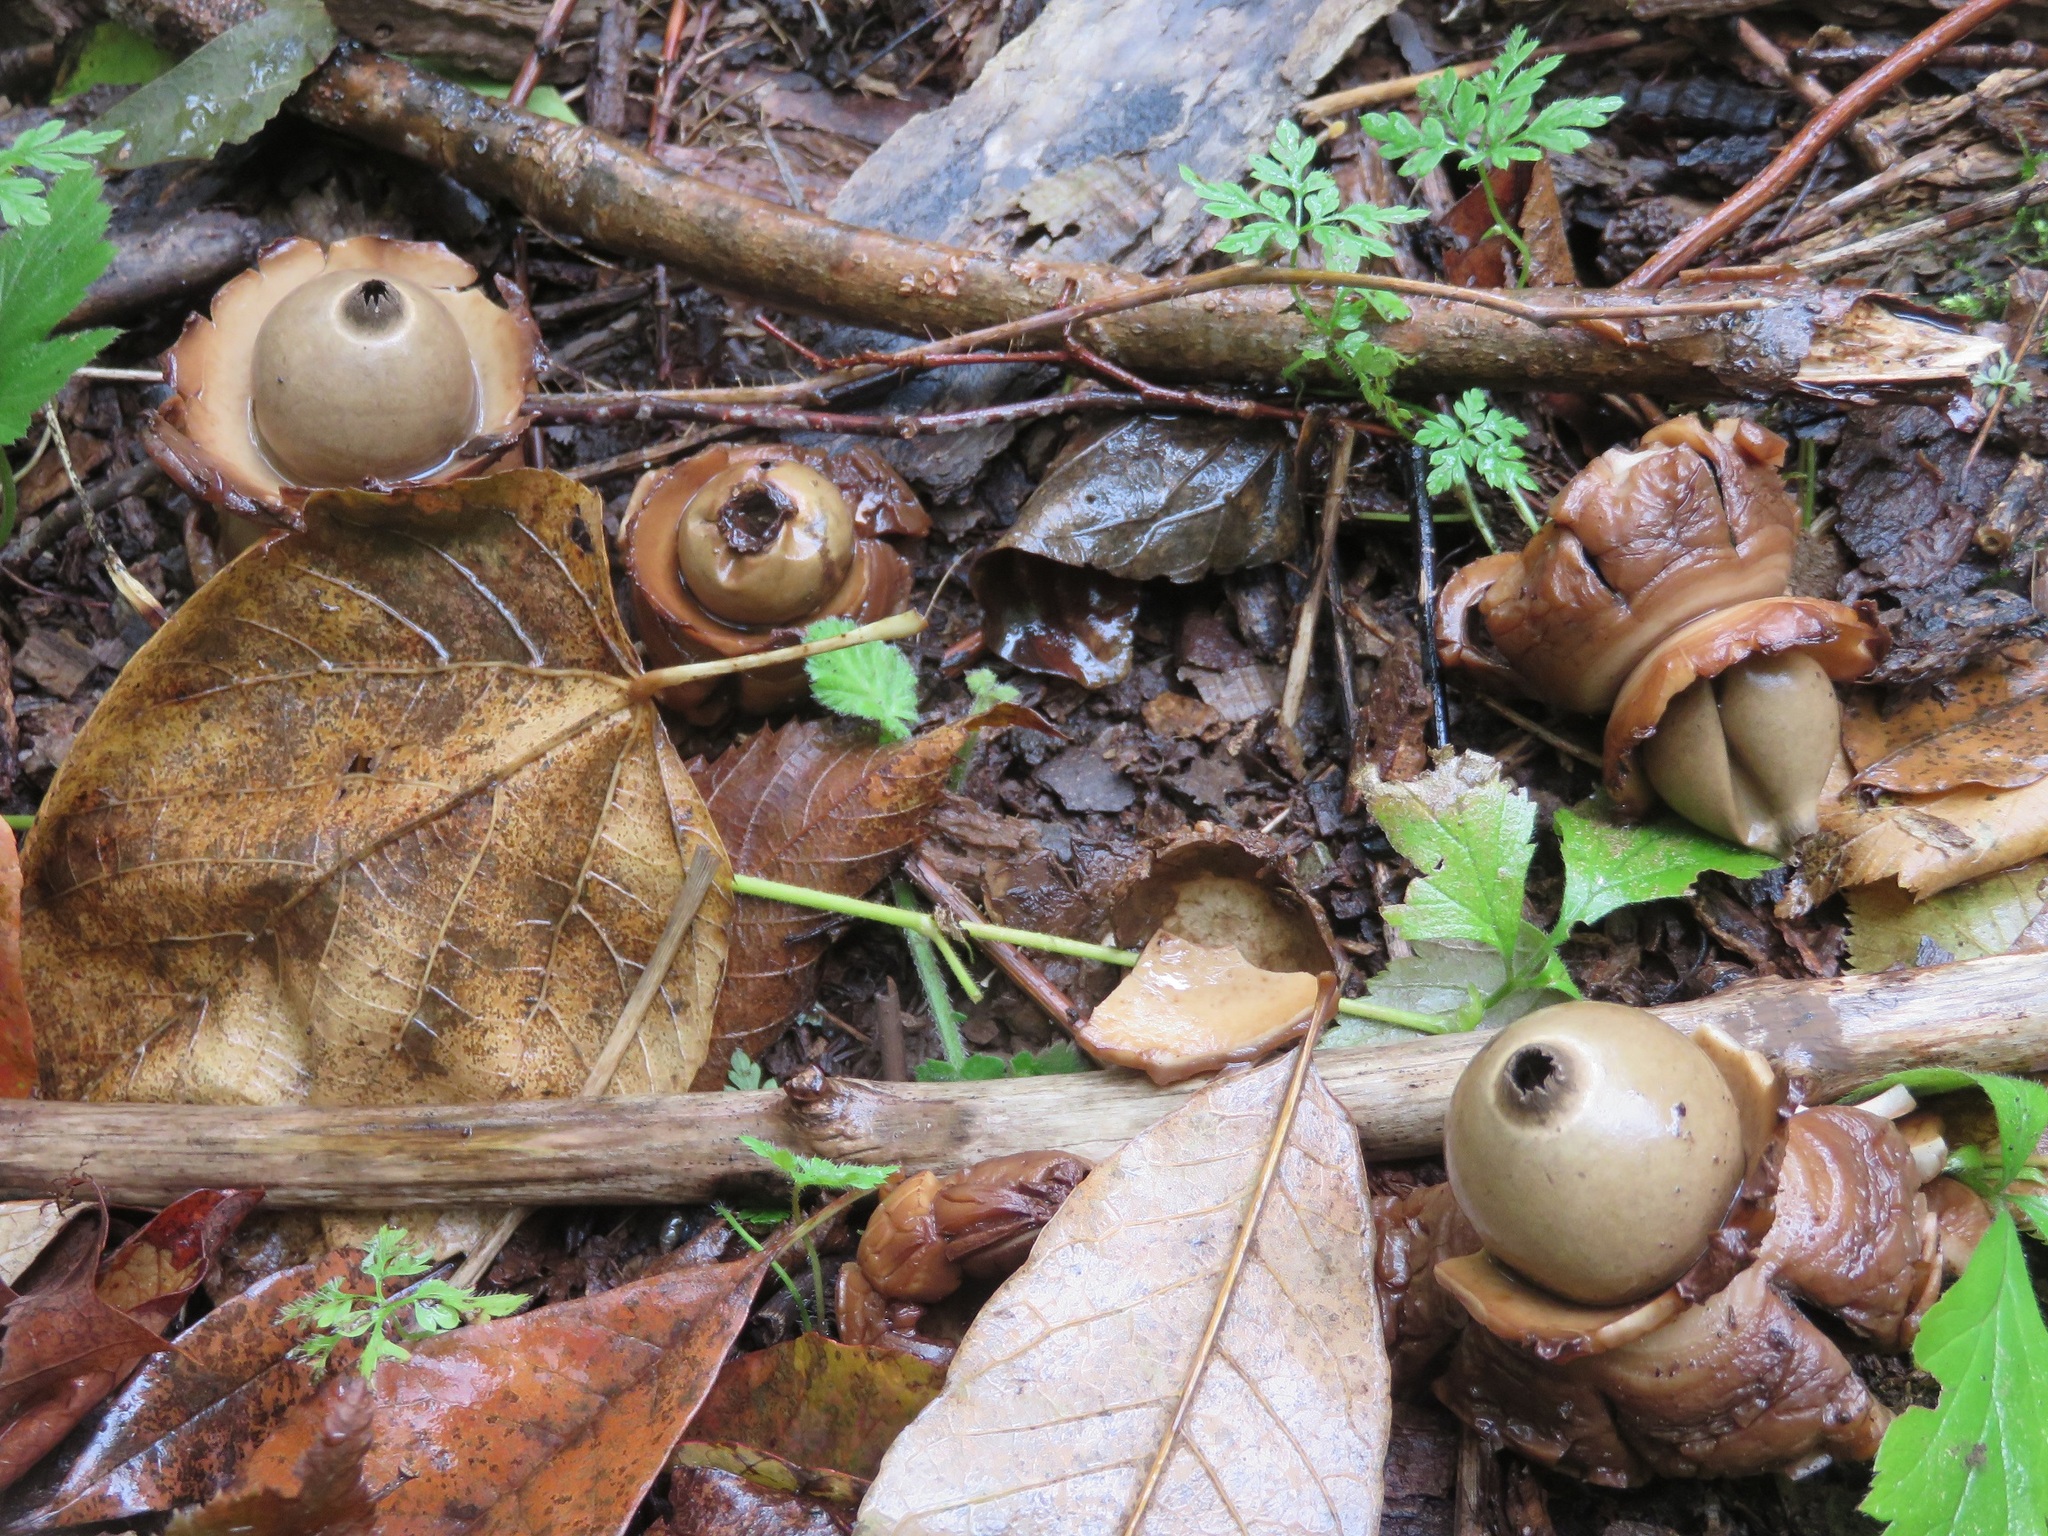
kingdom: Fungi
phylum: Basidiomycota
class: Agaricomycetes
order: Geastrales
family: Geastraceae
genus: Geastrum
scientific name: Geastrum triplex
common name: Collared earthstar
